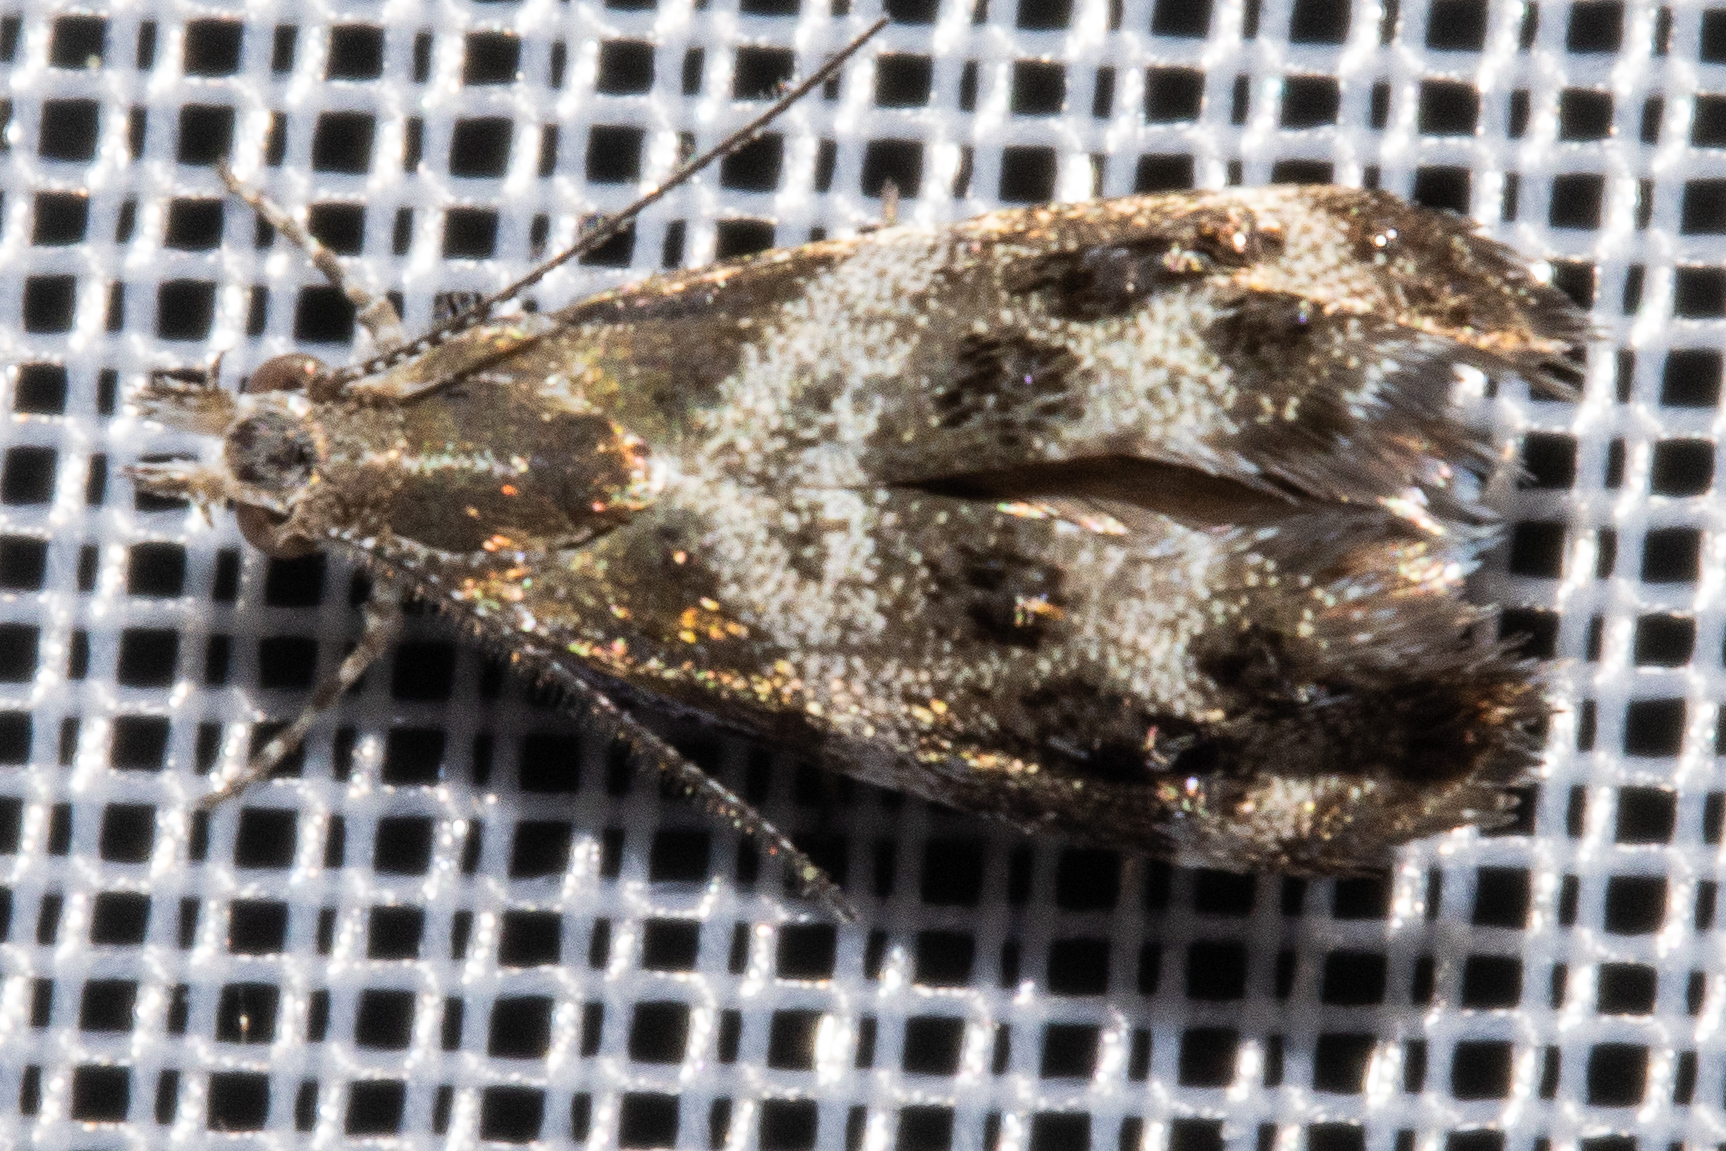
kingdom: Animalia
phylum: Arthropoda
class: Insecta
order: Lepidoptera
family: Choreutidae
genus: Tebenna
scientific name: Tebenna micalis
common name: Vagrant twitcher
